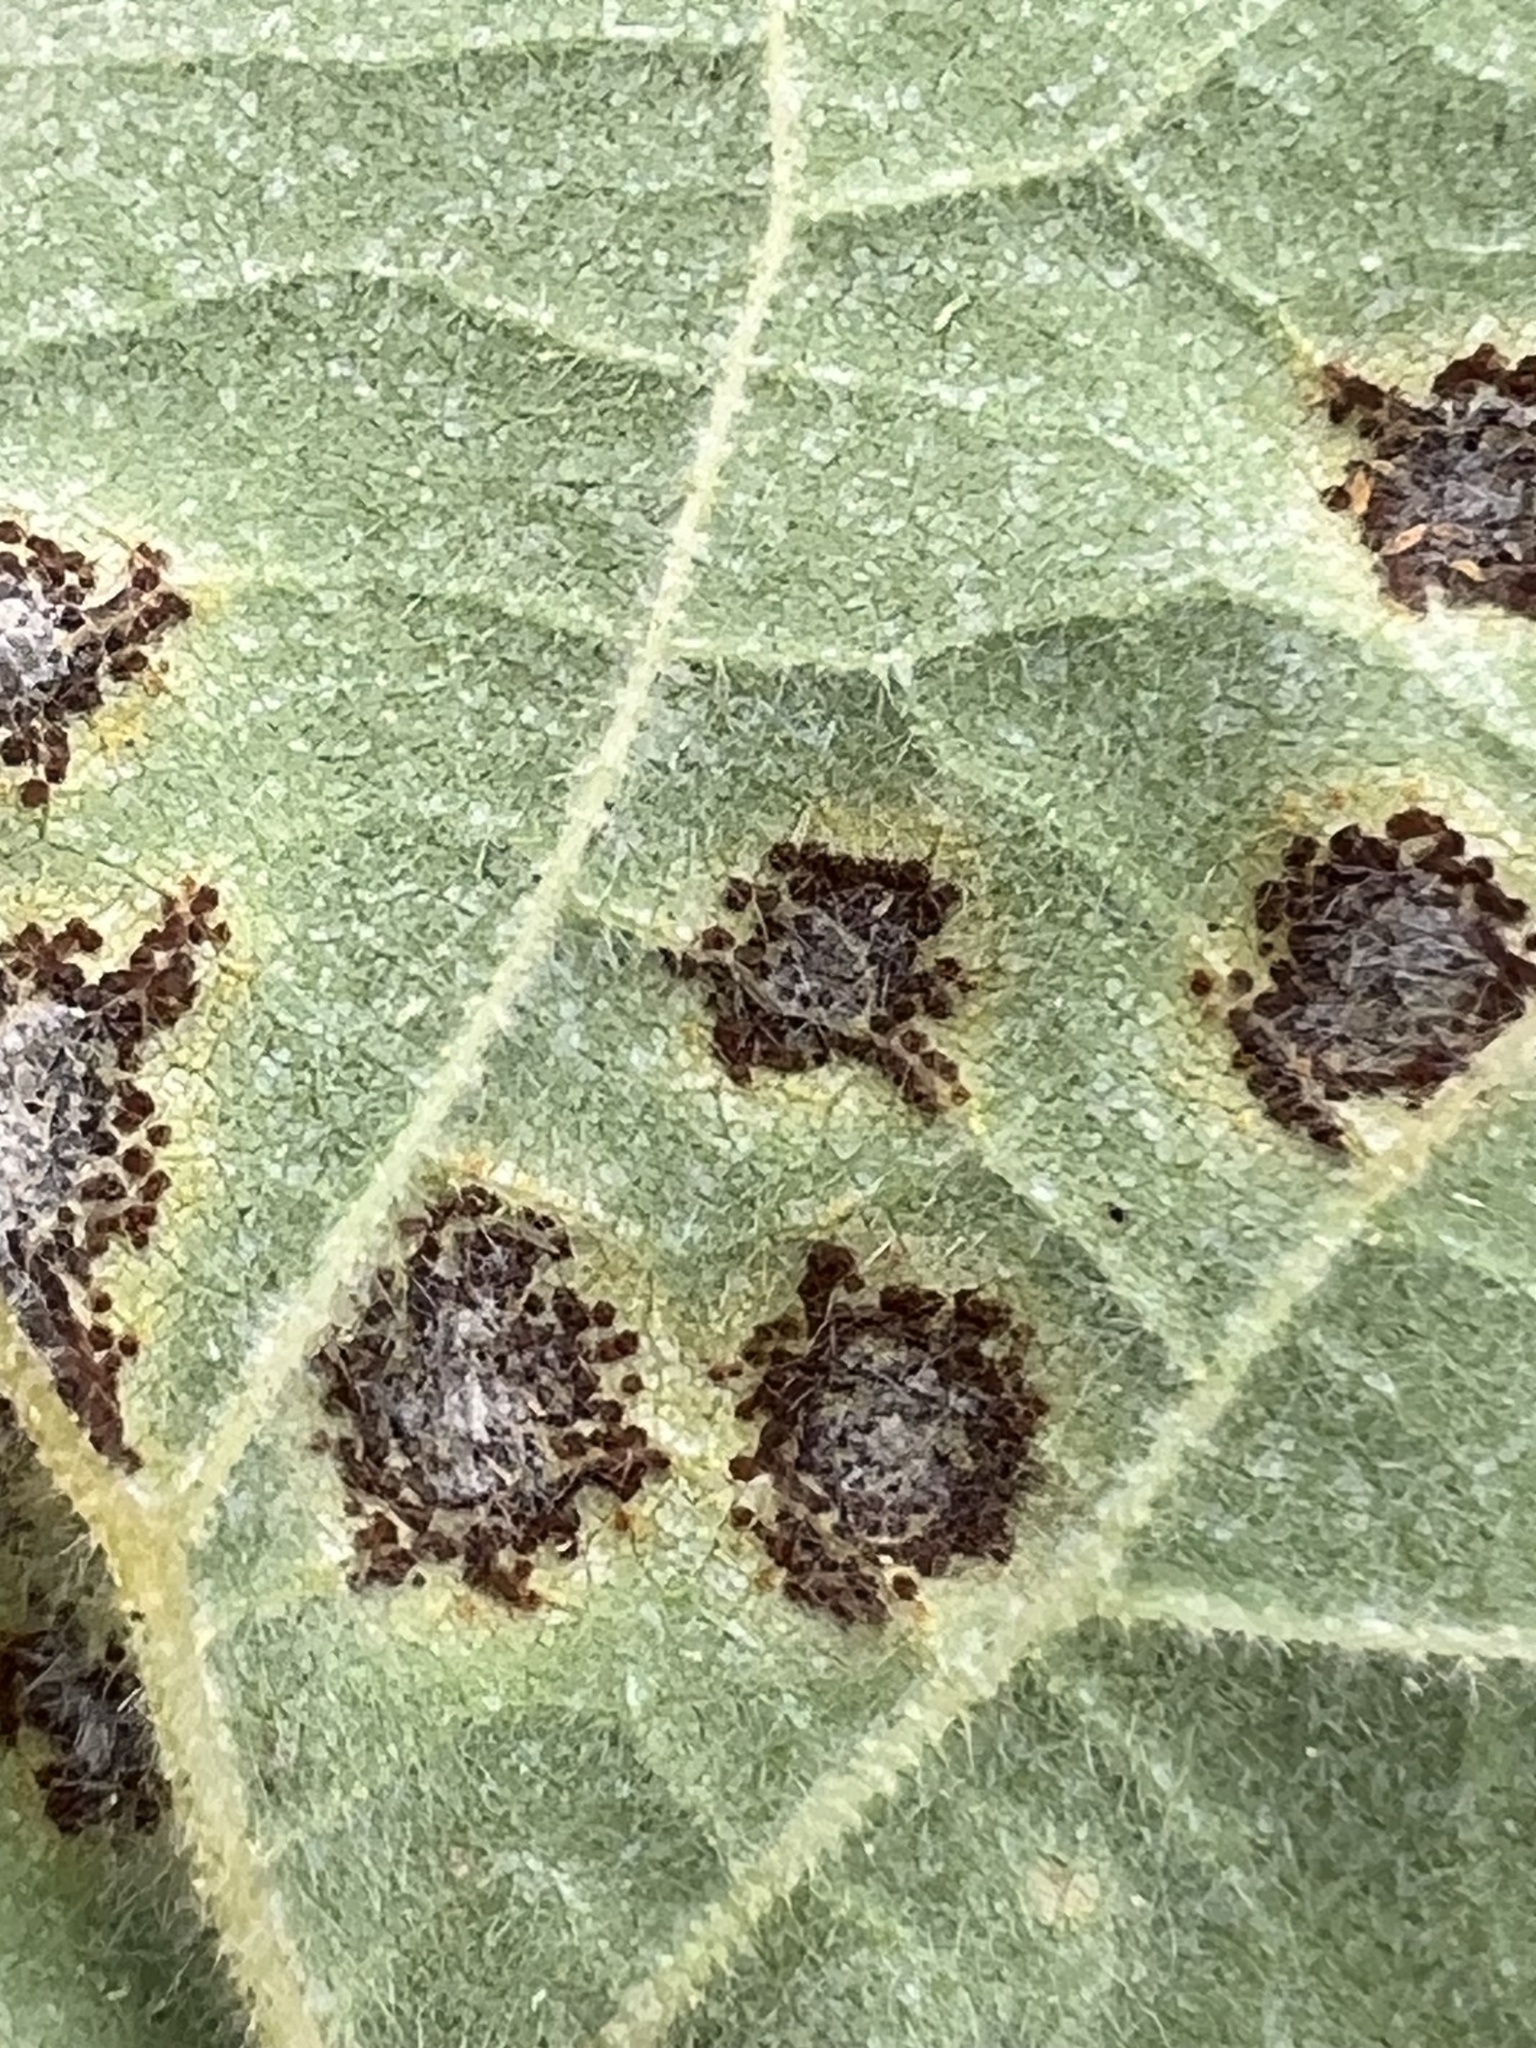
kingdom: Fungi
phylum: Basidiomycota
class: Pucciniomycetes
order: Pucciniales
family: Pucciniaceae
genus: Puccinia
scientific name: Puccinia heterospora
